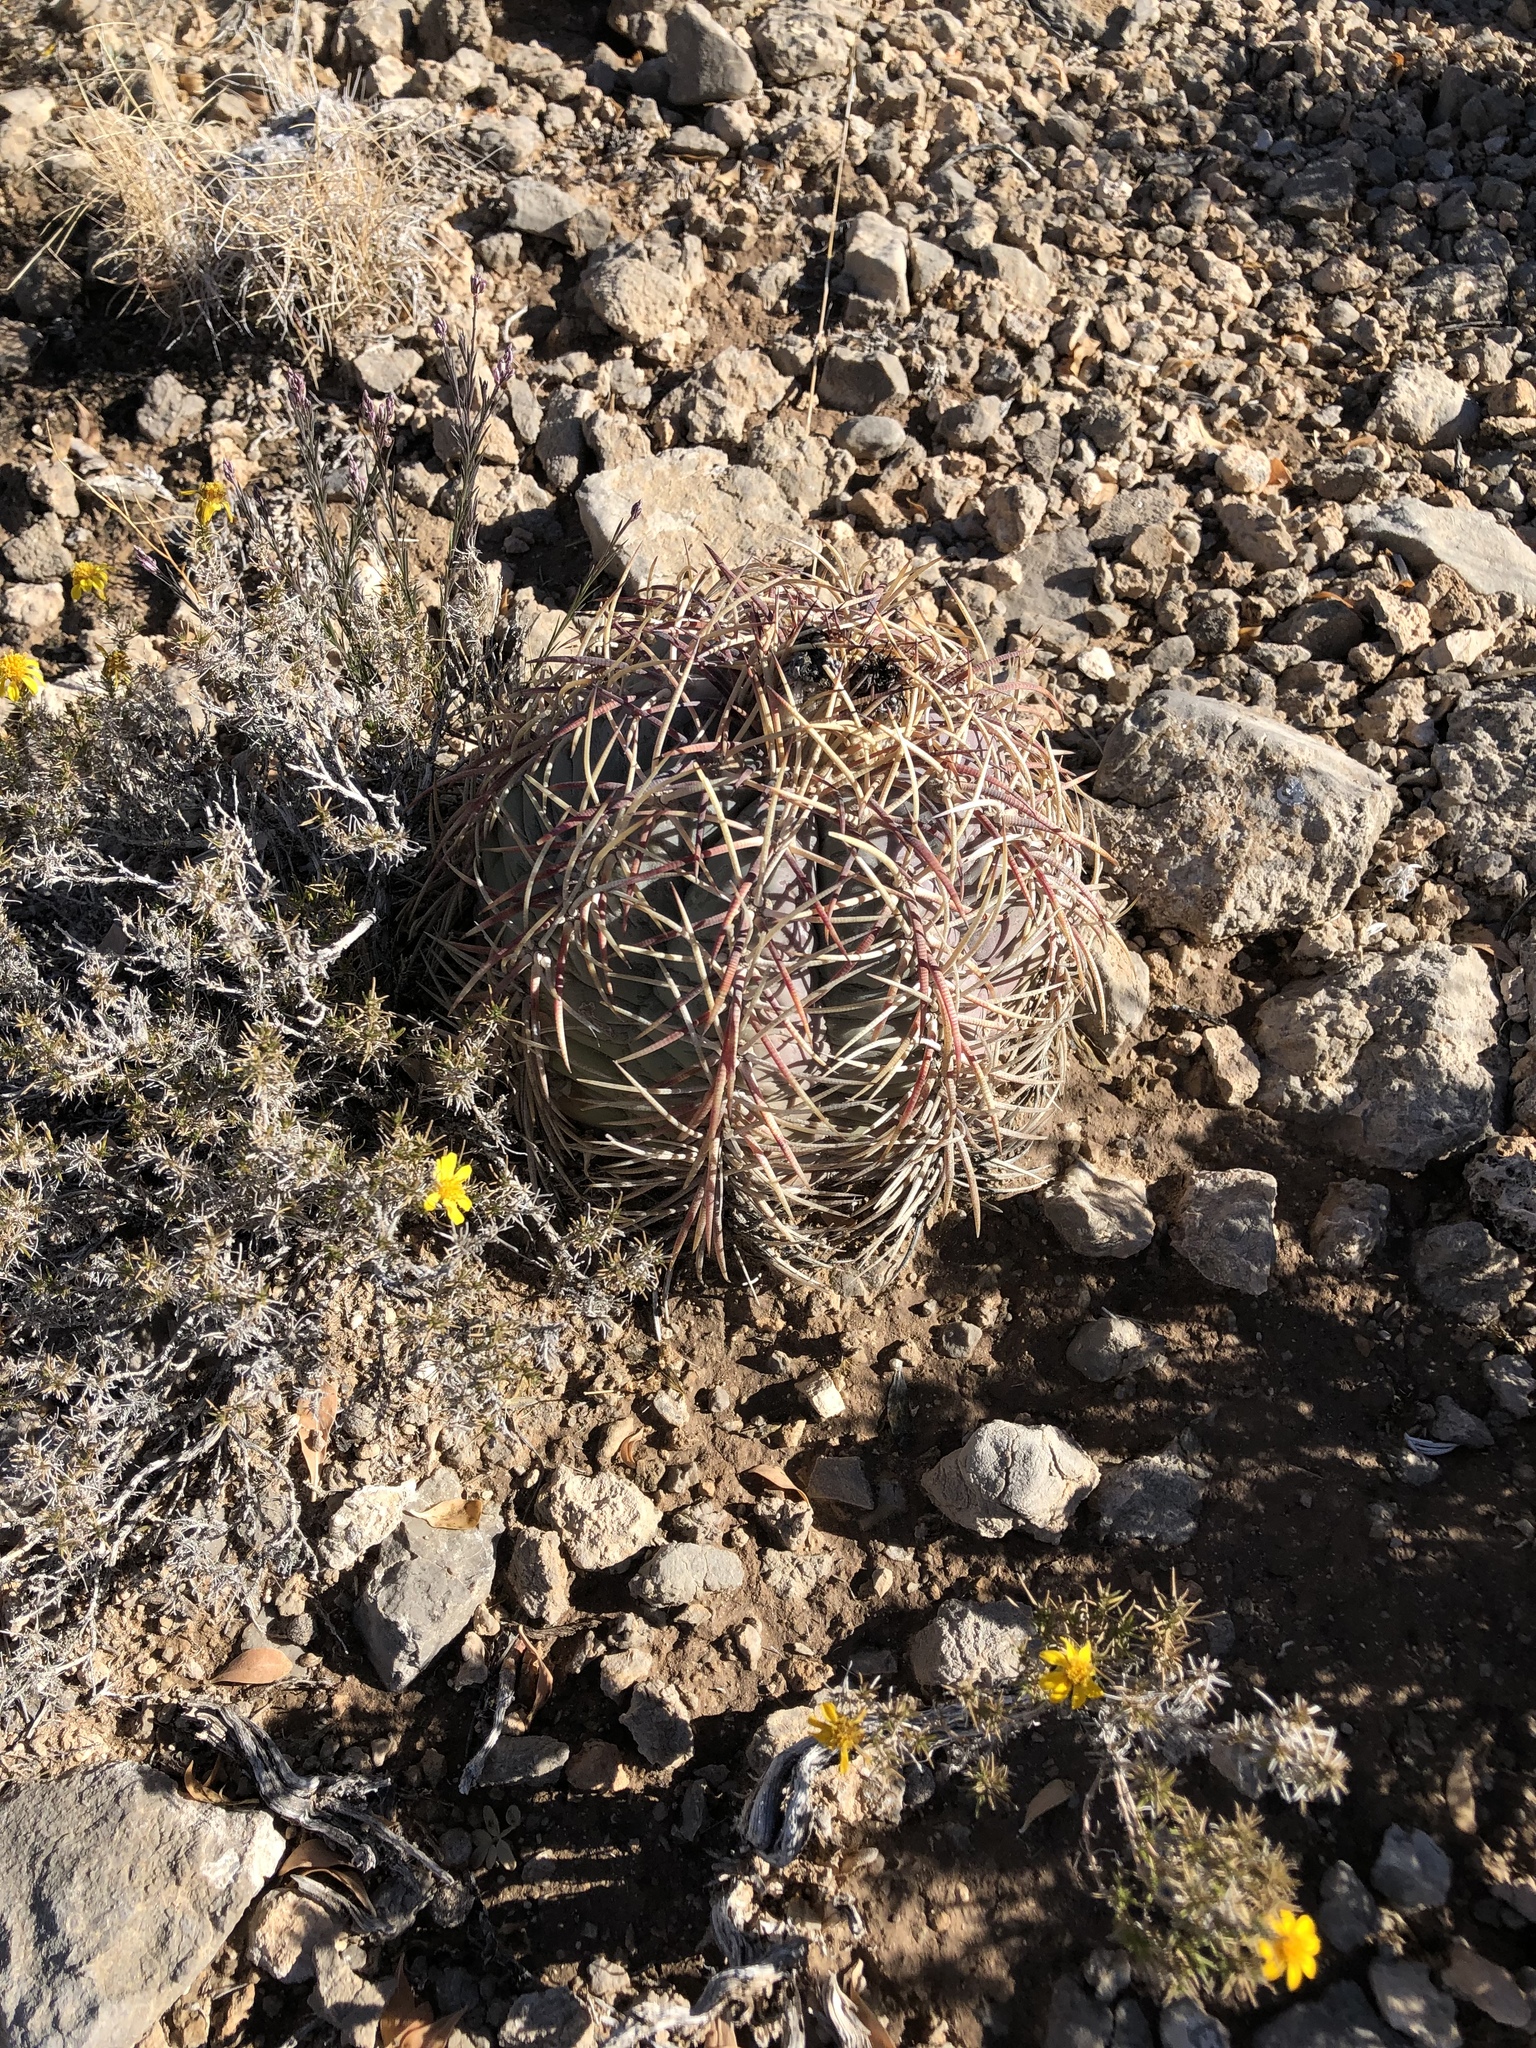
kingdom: Plantae
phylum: Tracheophyta
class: Magnoliopsida
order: Caryophyllales
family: Cactaceae
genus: Echinocactus
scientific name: Echinocactus horizonthalonius
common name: Devilshead
